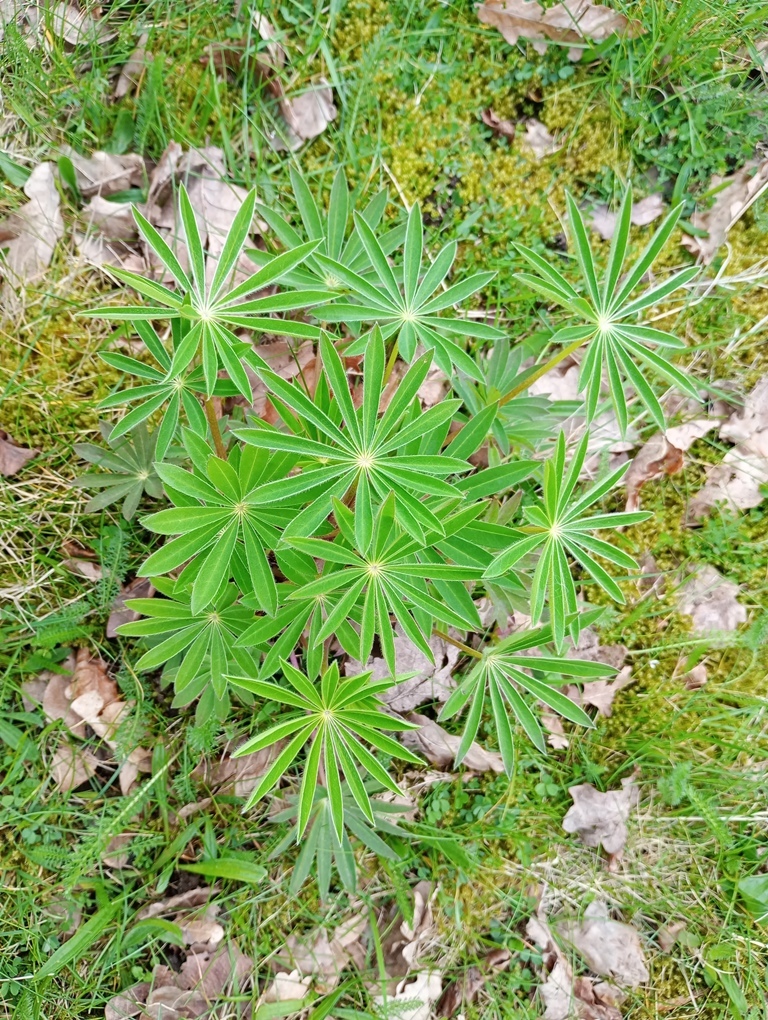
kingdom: Plantae
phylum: Tracheophyta
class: Magnoliopsida
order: Fabales
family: Fabaceae
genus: Lupinus
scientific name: Lupinus polyphyllus
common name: Garden lupin
